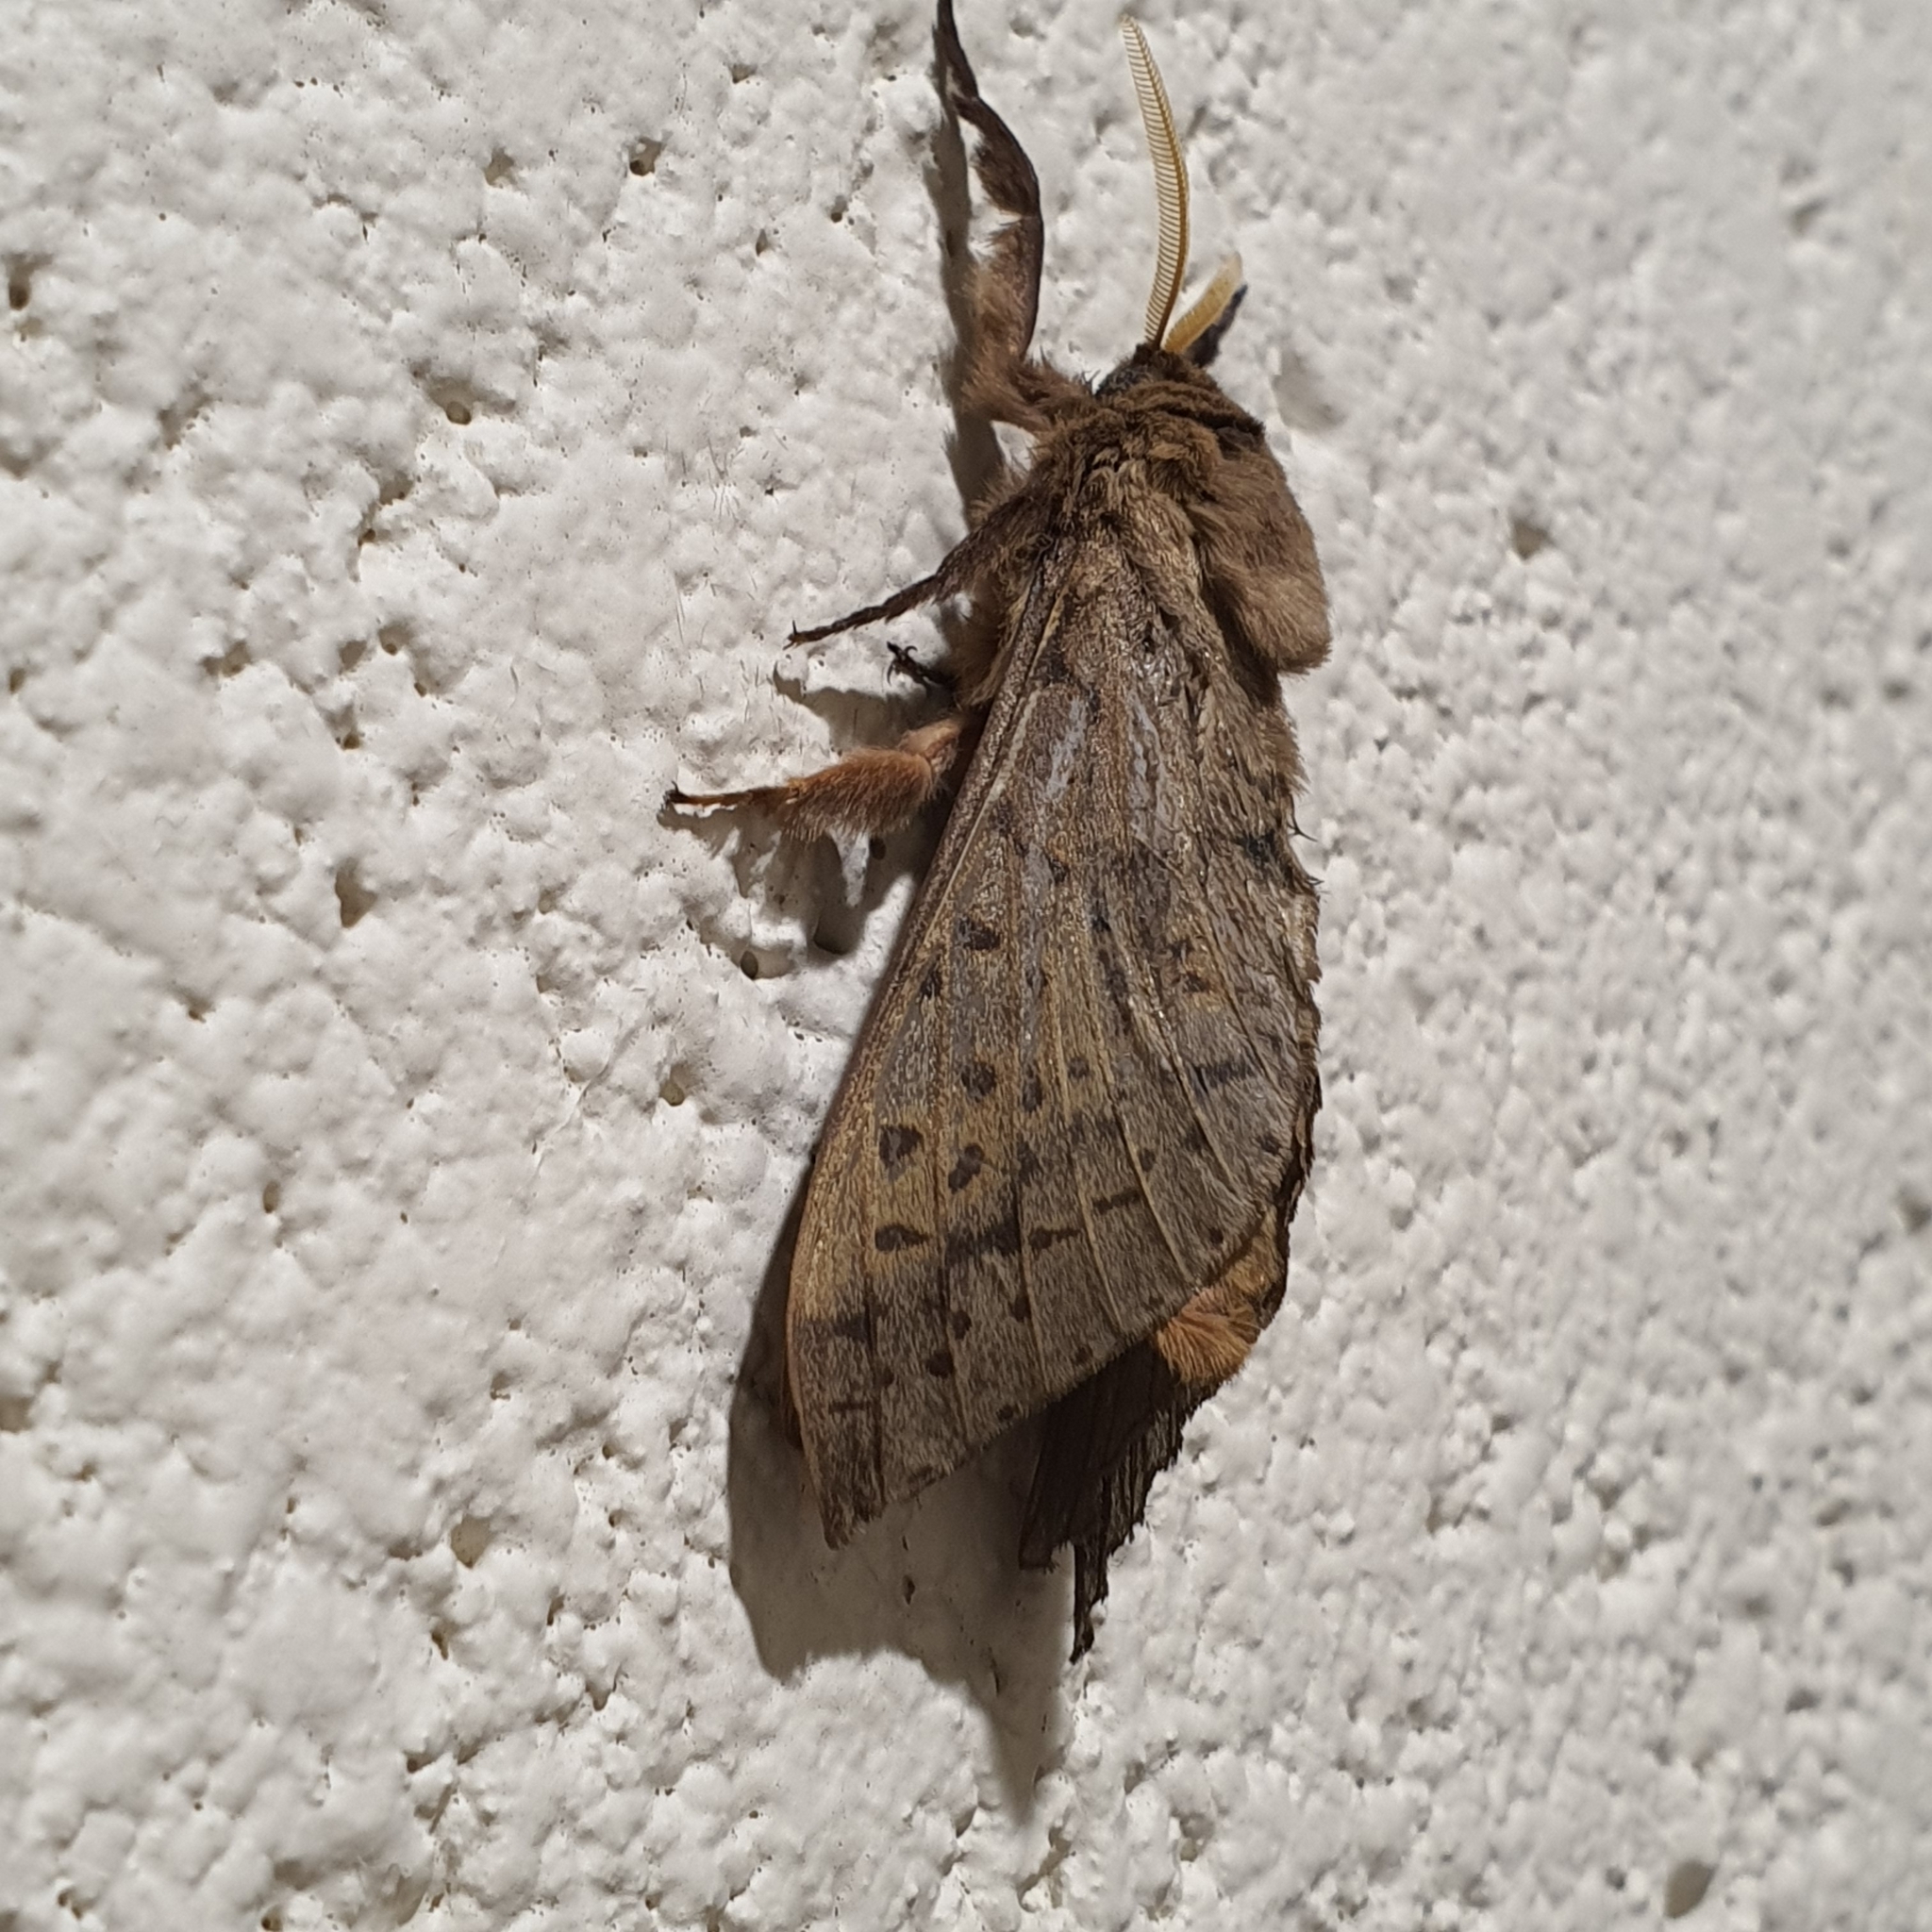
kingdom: Animalia
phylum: Arthropoda
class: Insecta
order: Lepidoptera
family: Hepialidae
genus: Oxycanus
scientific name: Oxycanus silvanus
